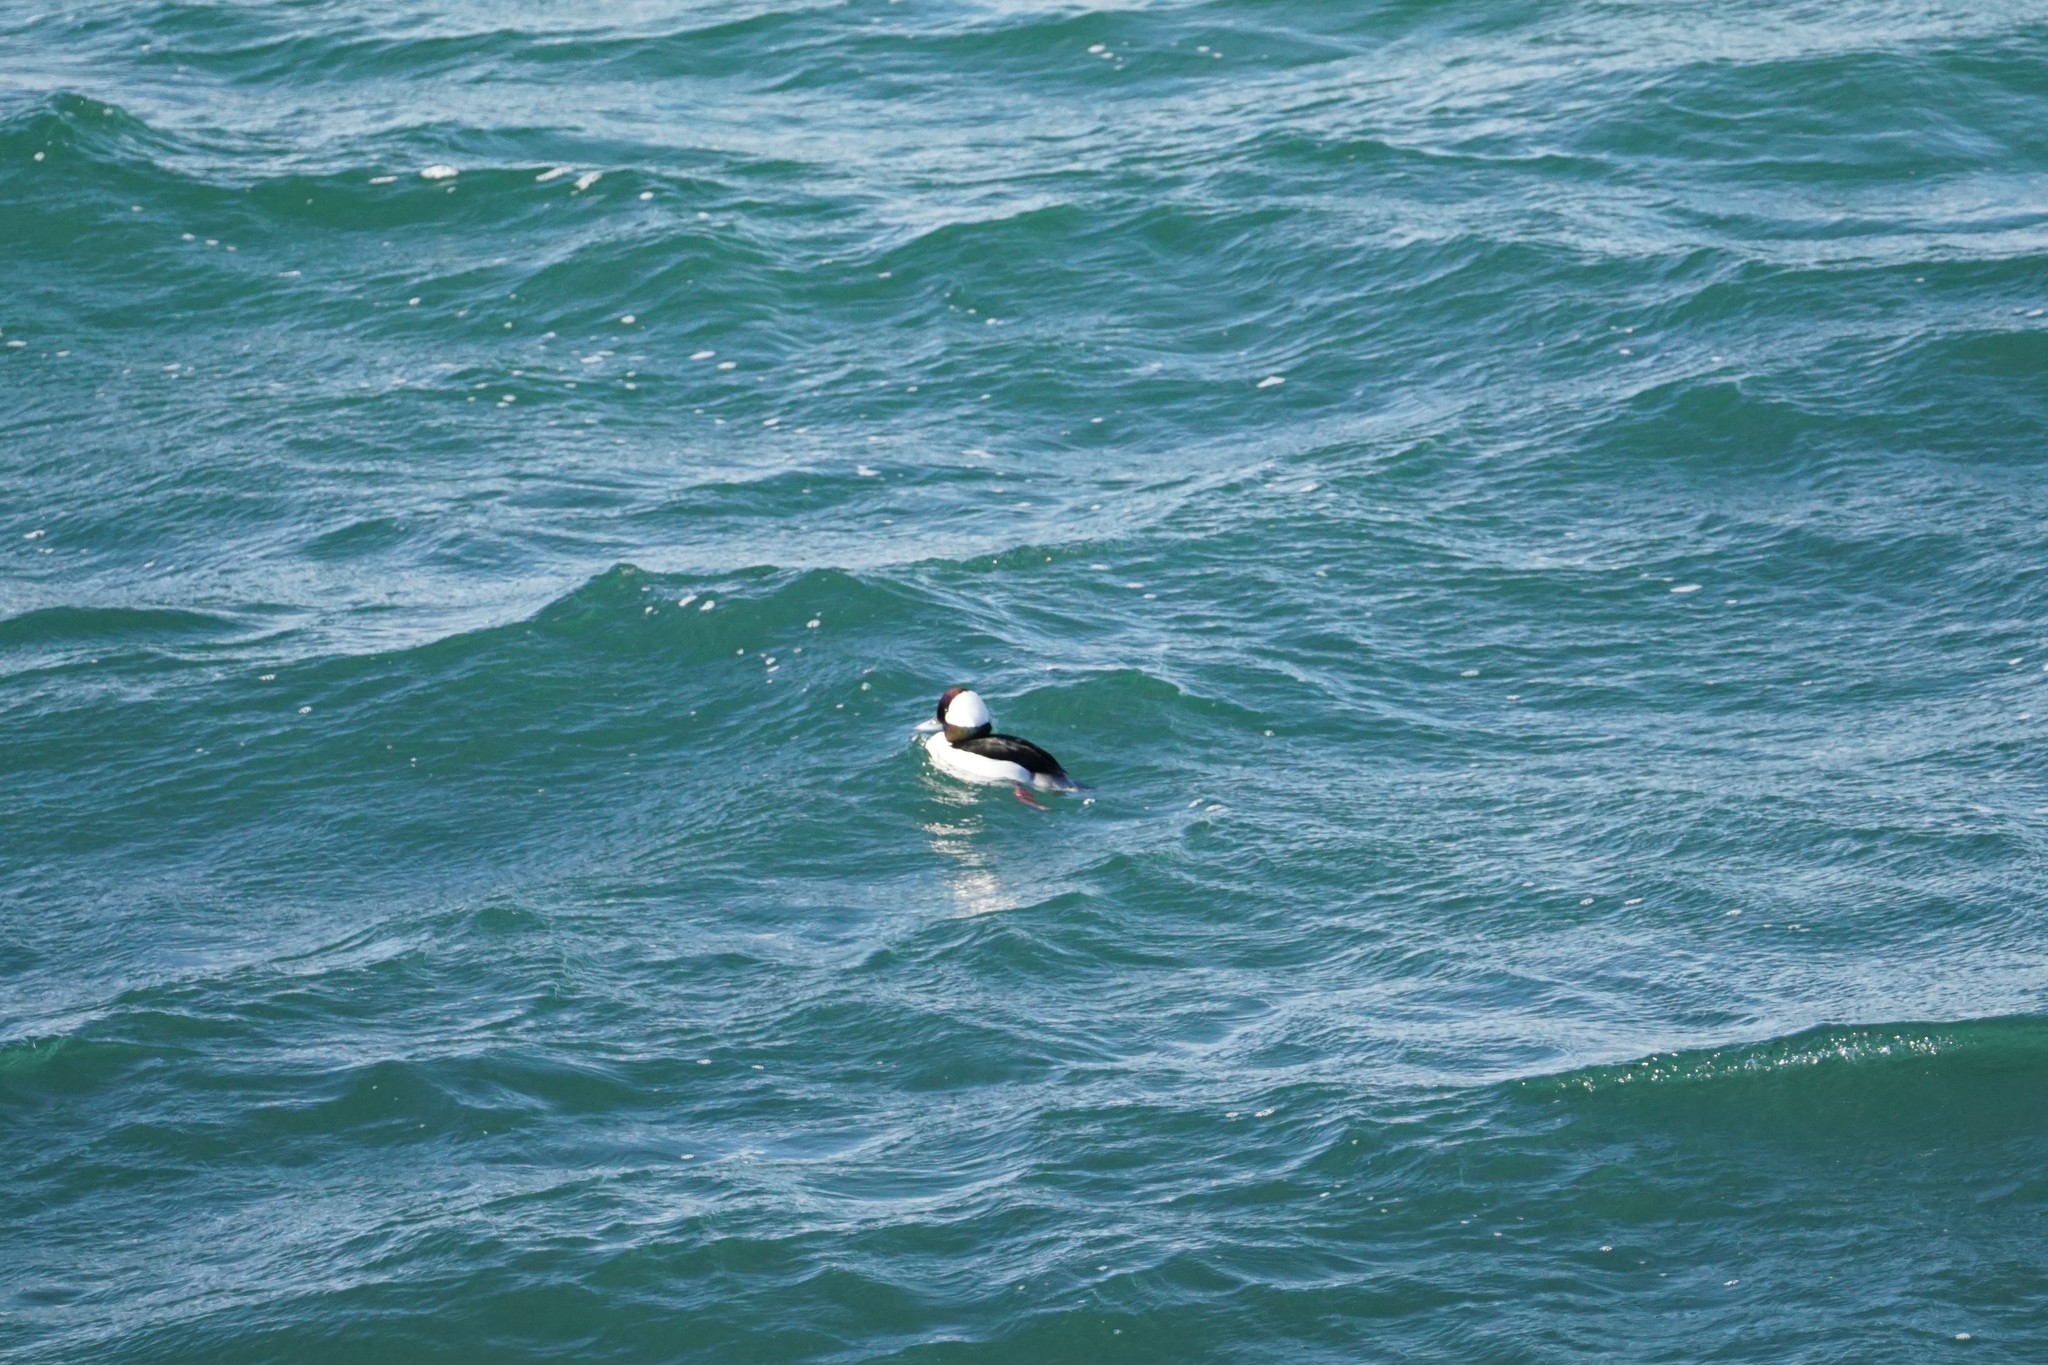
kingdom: Animalia
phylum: Chordata
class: Aves
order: Anseriformes
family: Anatidae
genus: Bucephala
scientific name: Bucephala albeola
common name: Bufflehead
